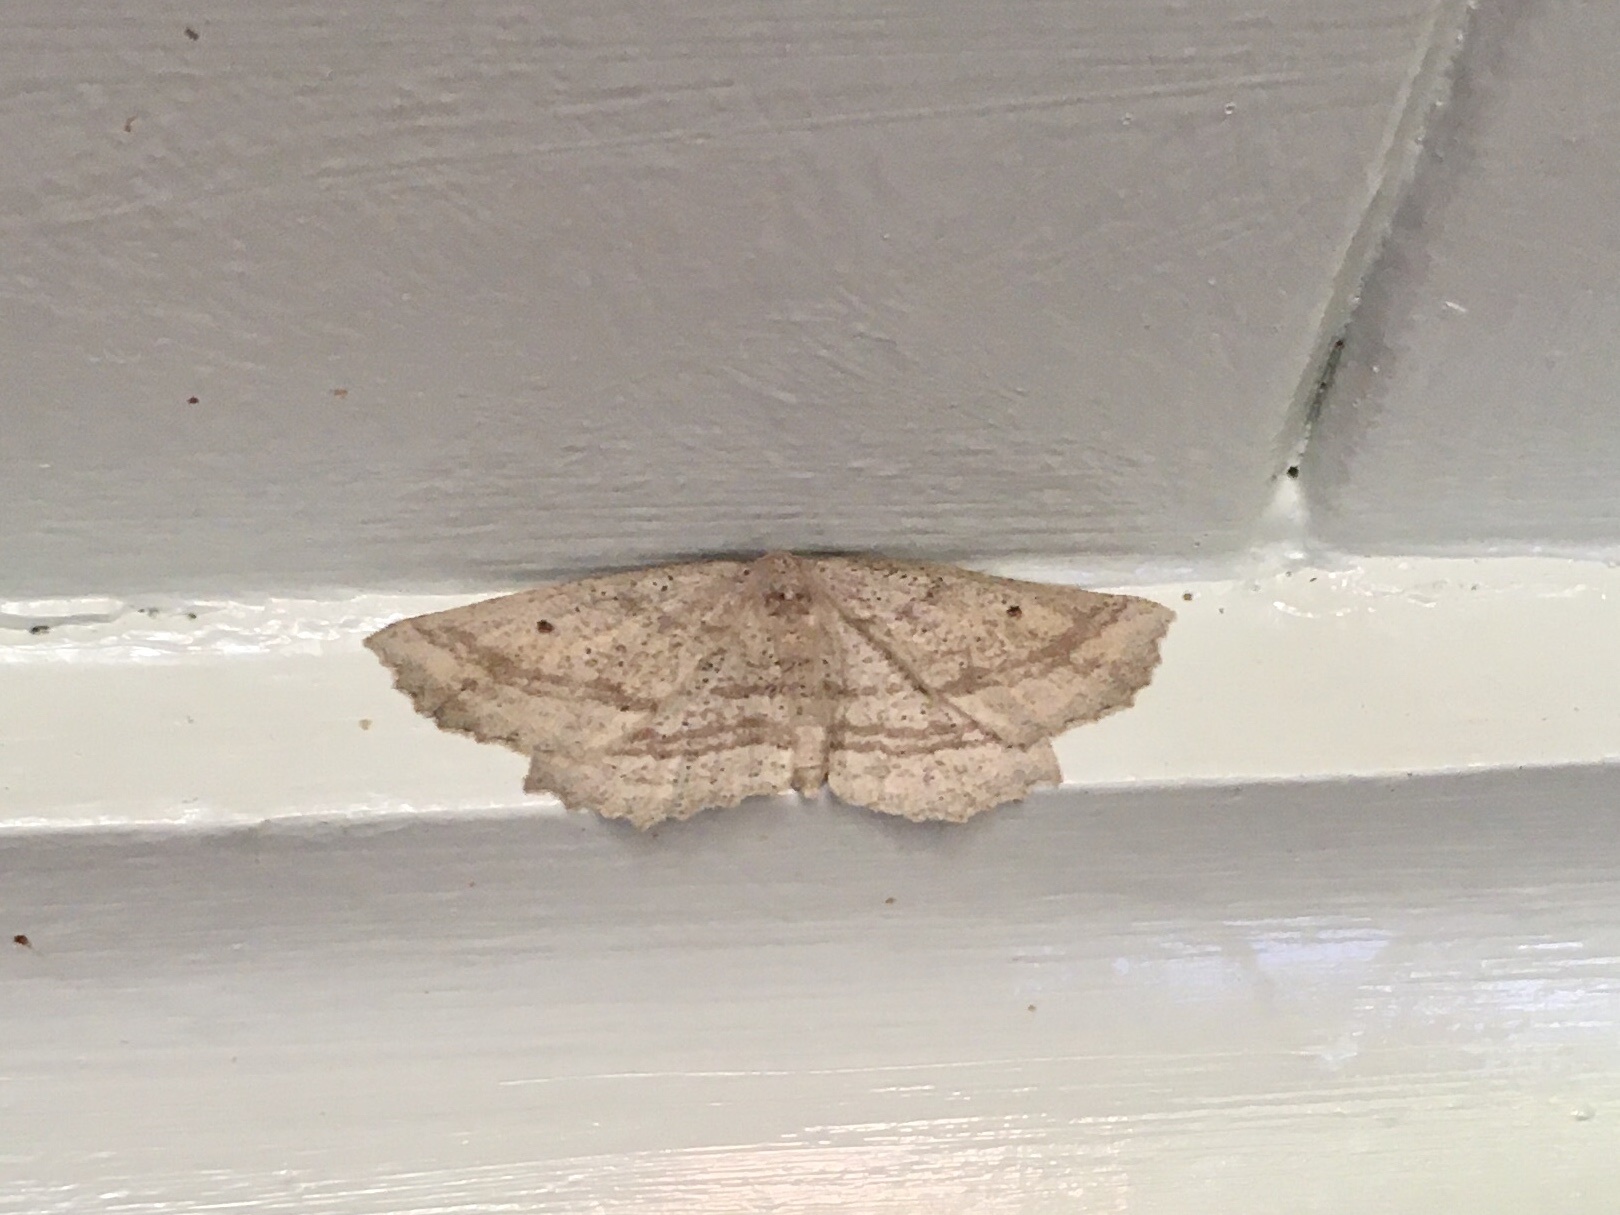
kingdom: Animalia
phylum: Arthropoda
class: Insecta
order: Lepidoptera
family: Geometridae
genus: Xyridacma
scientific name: Xyridacma veronicae
